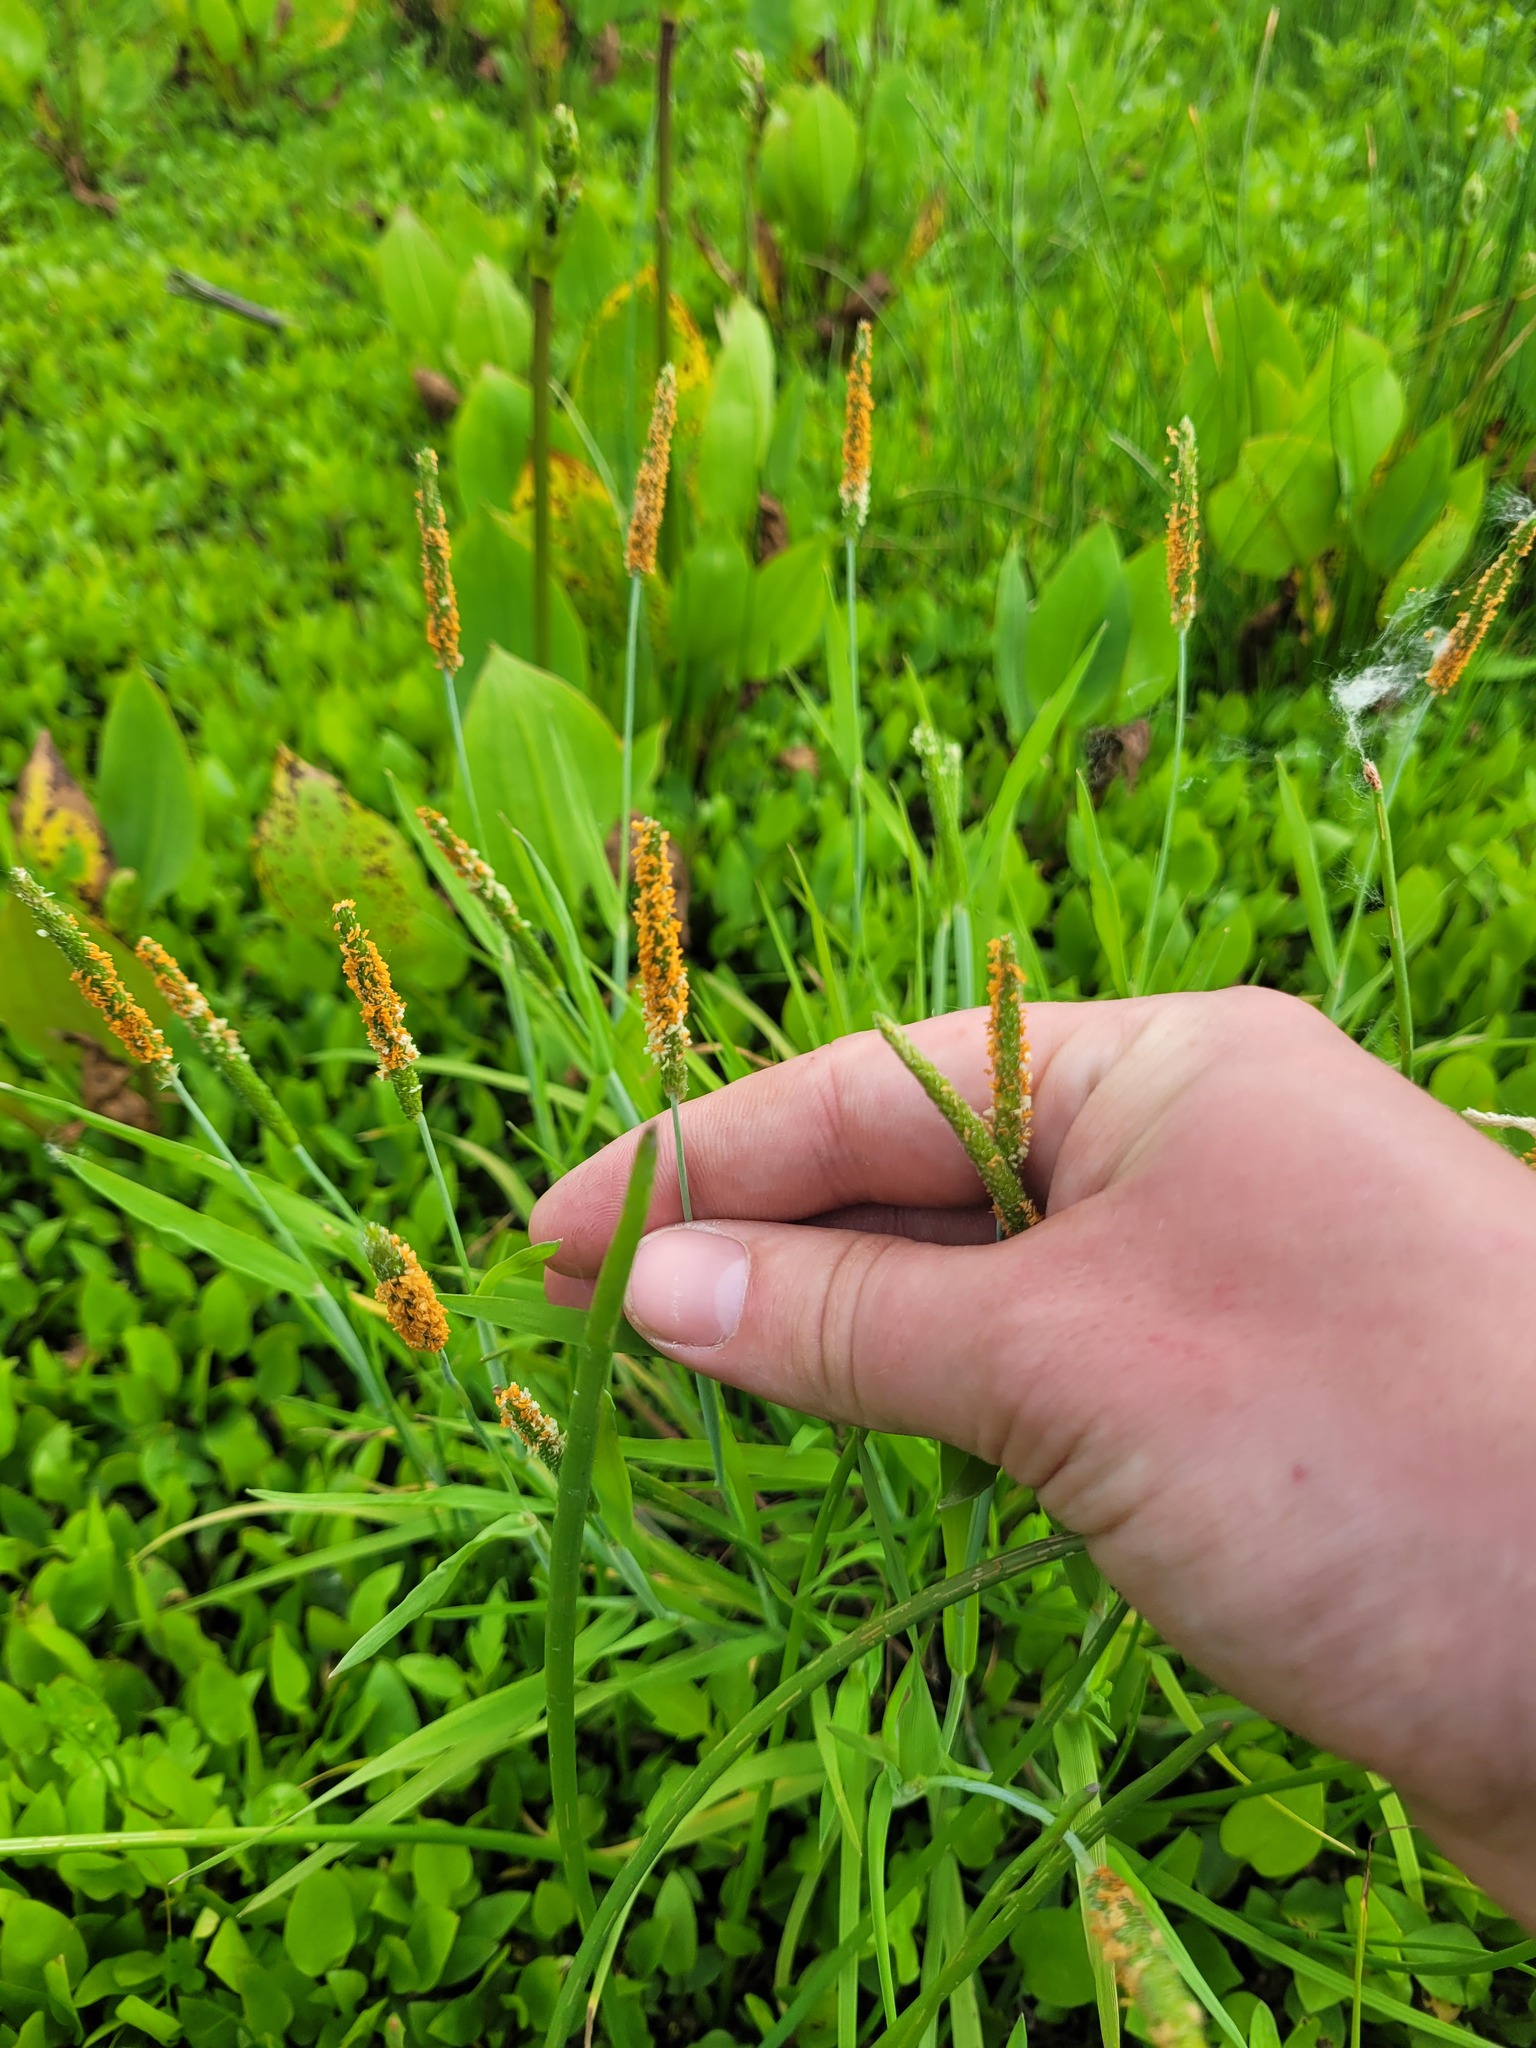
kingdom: Plantae
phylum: Tracheophyta
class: Liliopsida
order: Poales
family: Poaceae
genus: Alopecurus
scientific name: Alopecurus aequalis
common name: Orange foxtail
